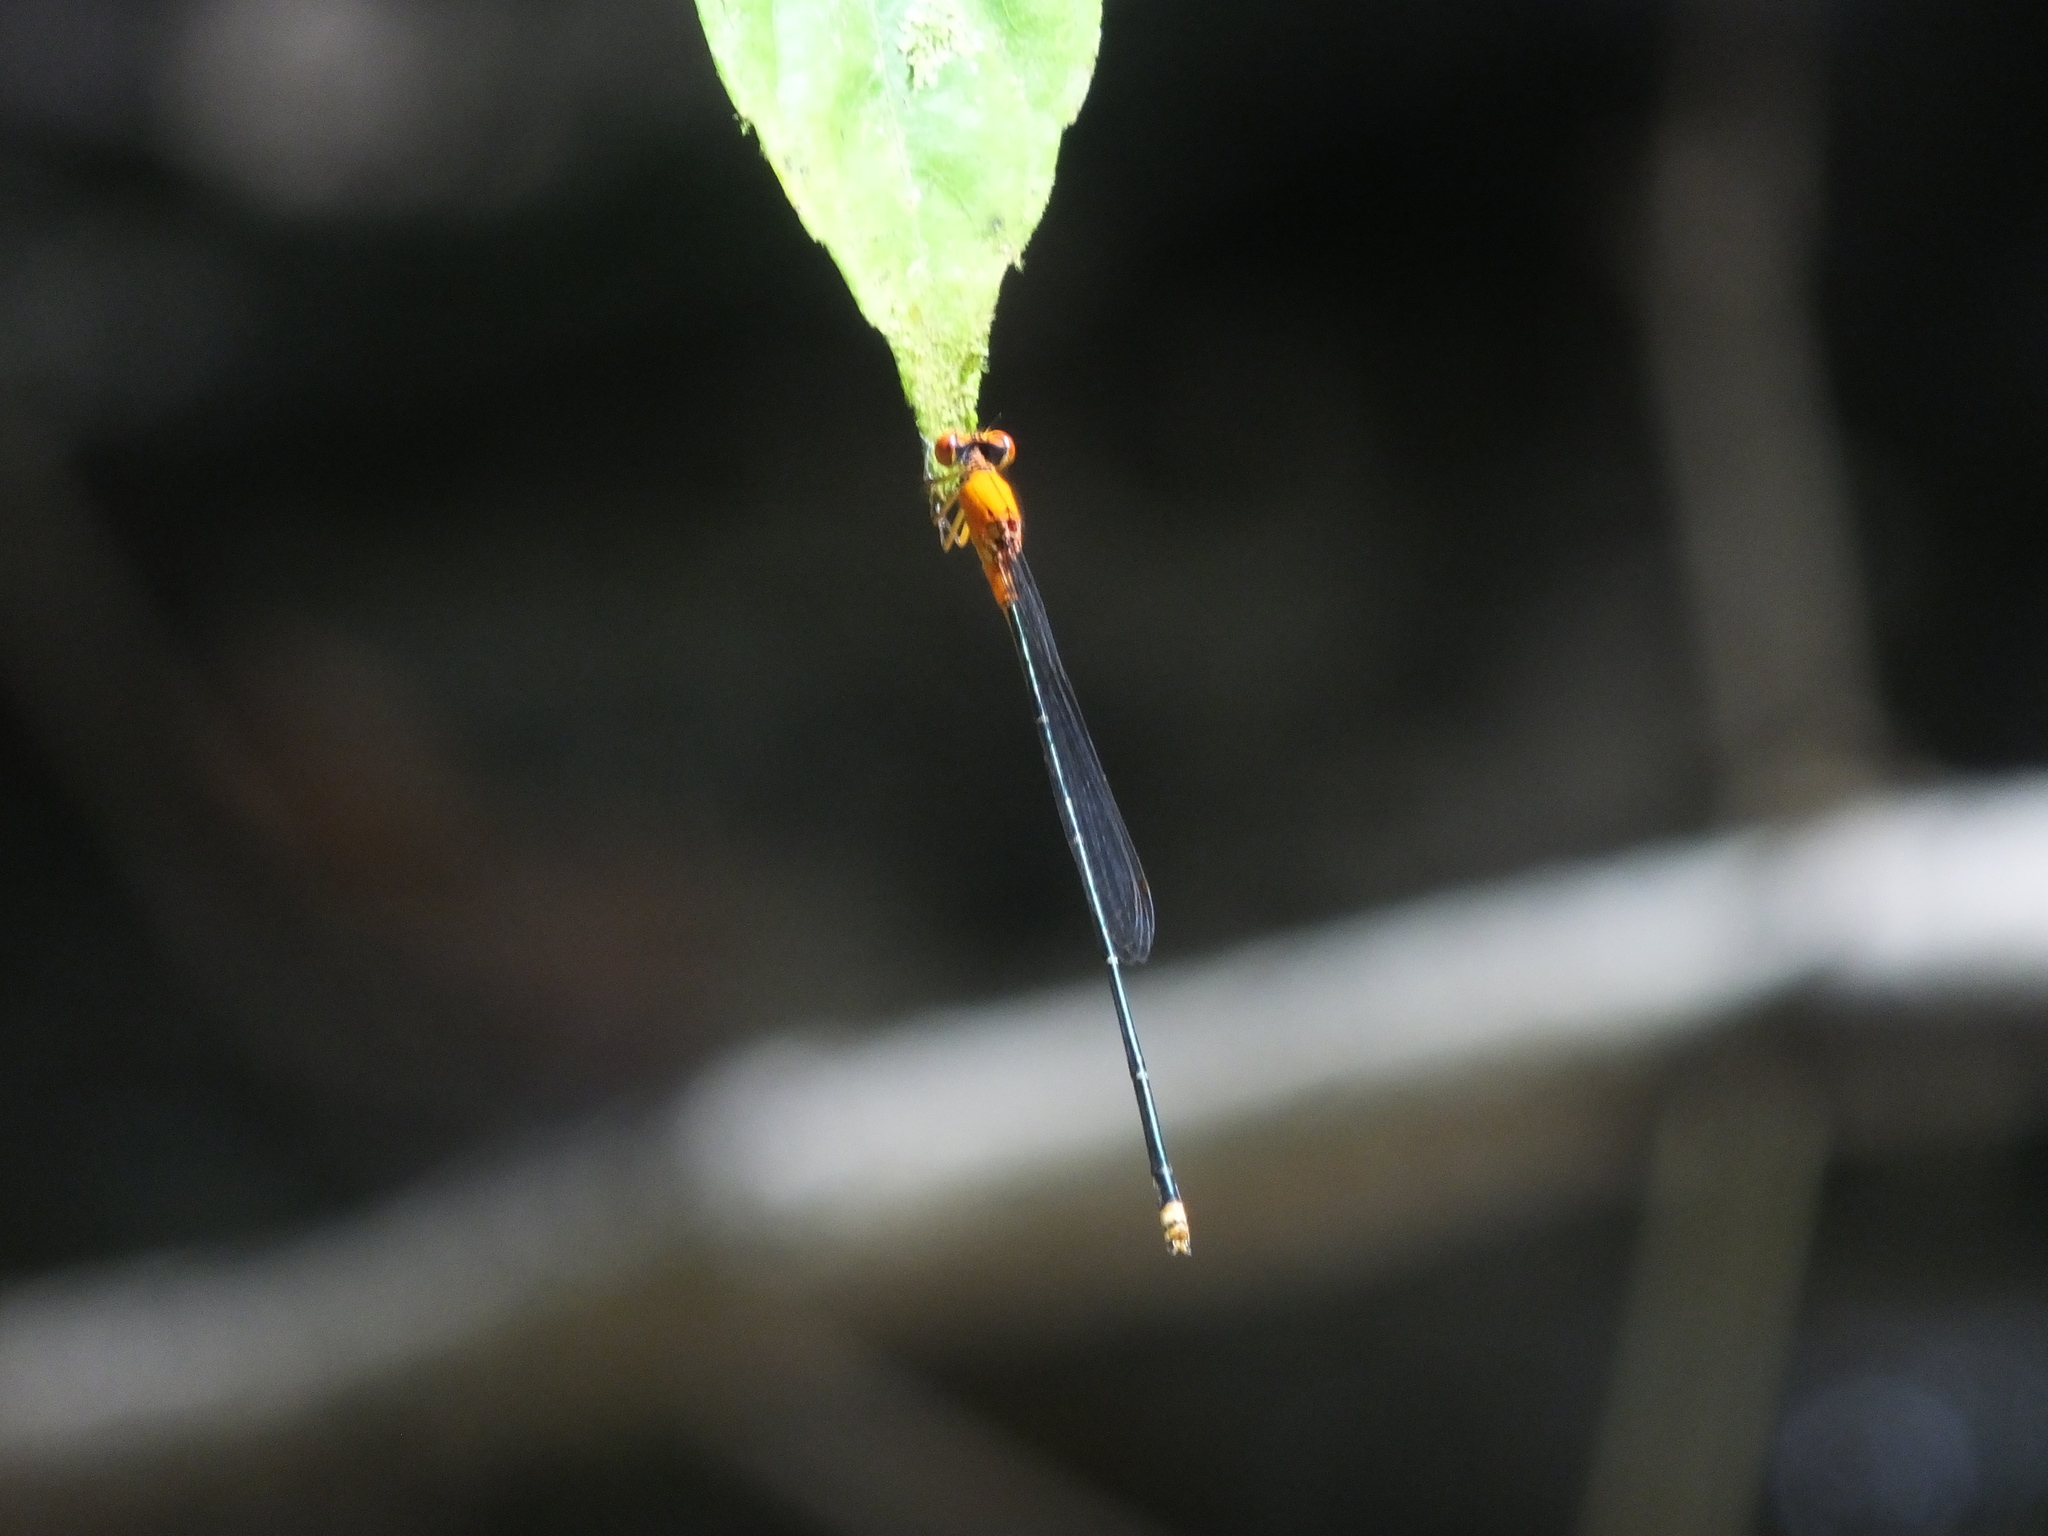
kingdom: Animalia
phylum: Arthropoda
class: Insecta
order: Odonata
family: Coenagrionidae
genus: Pseudagrion
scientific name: Pseudagrion ustum
